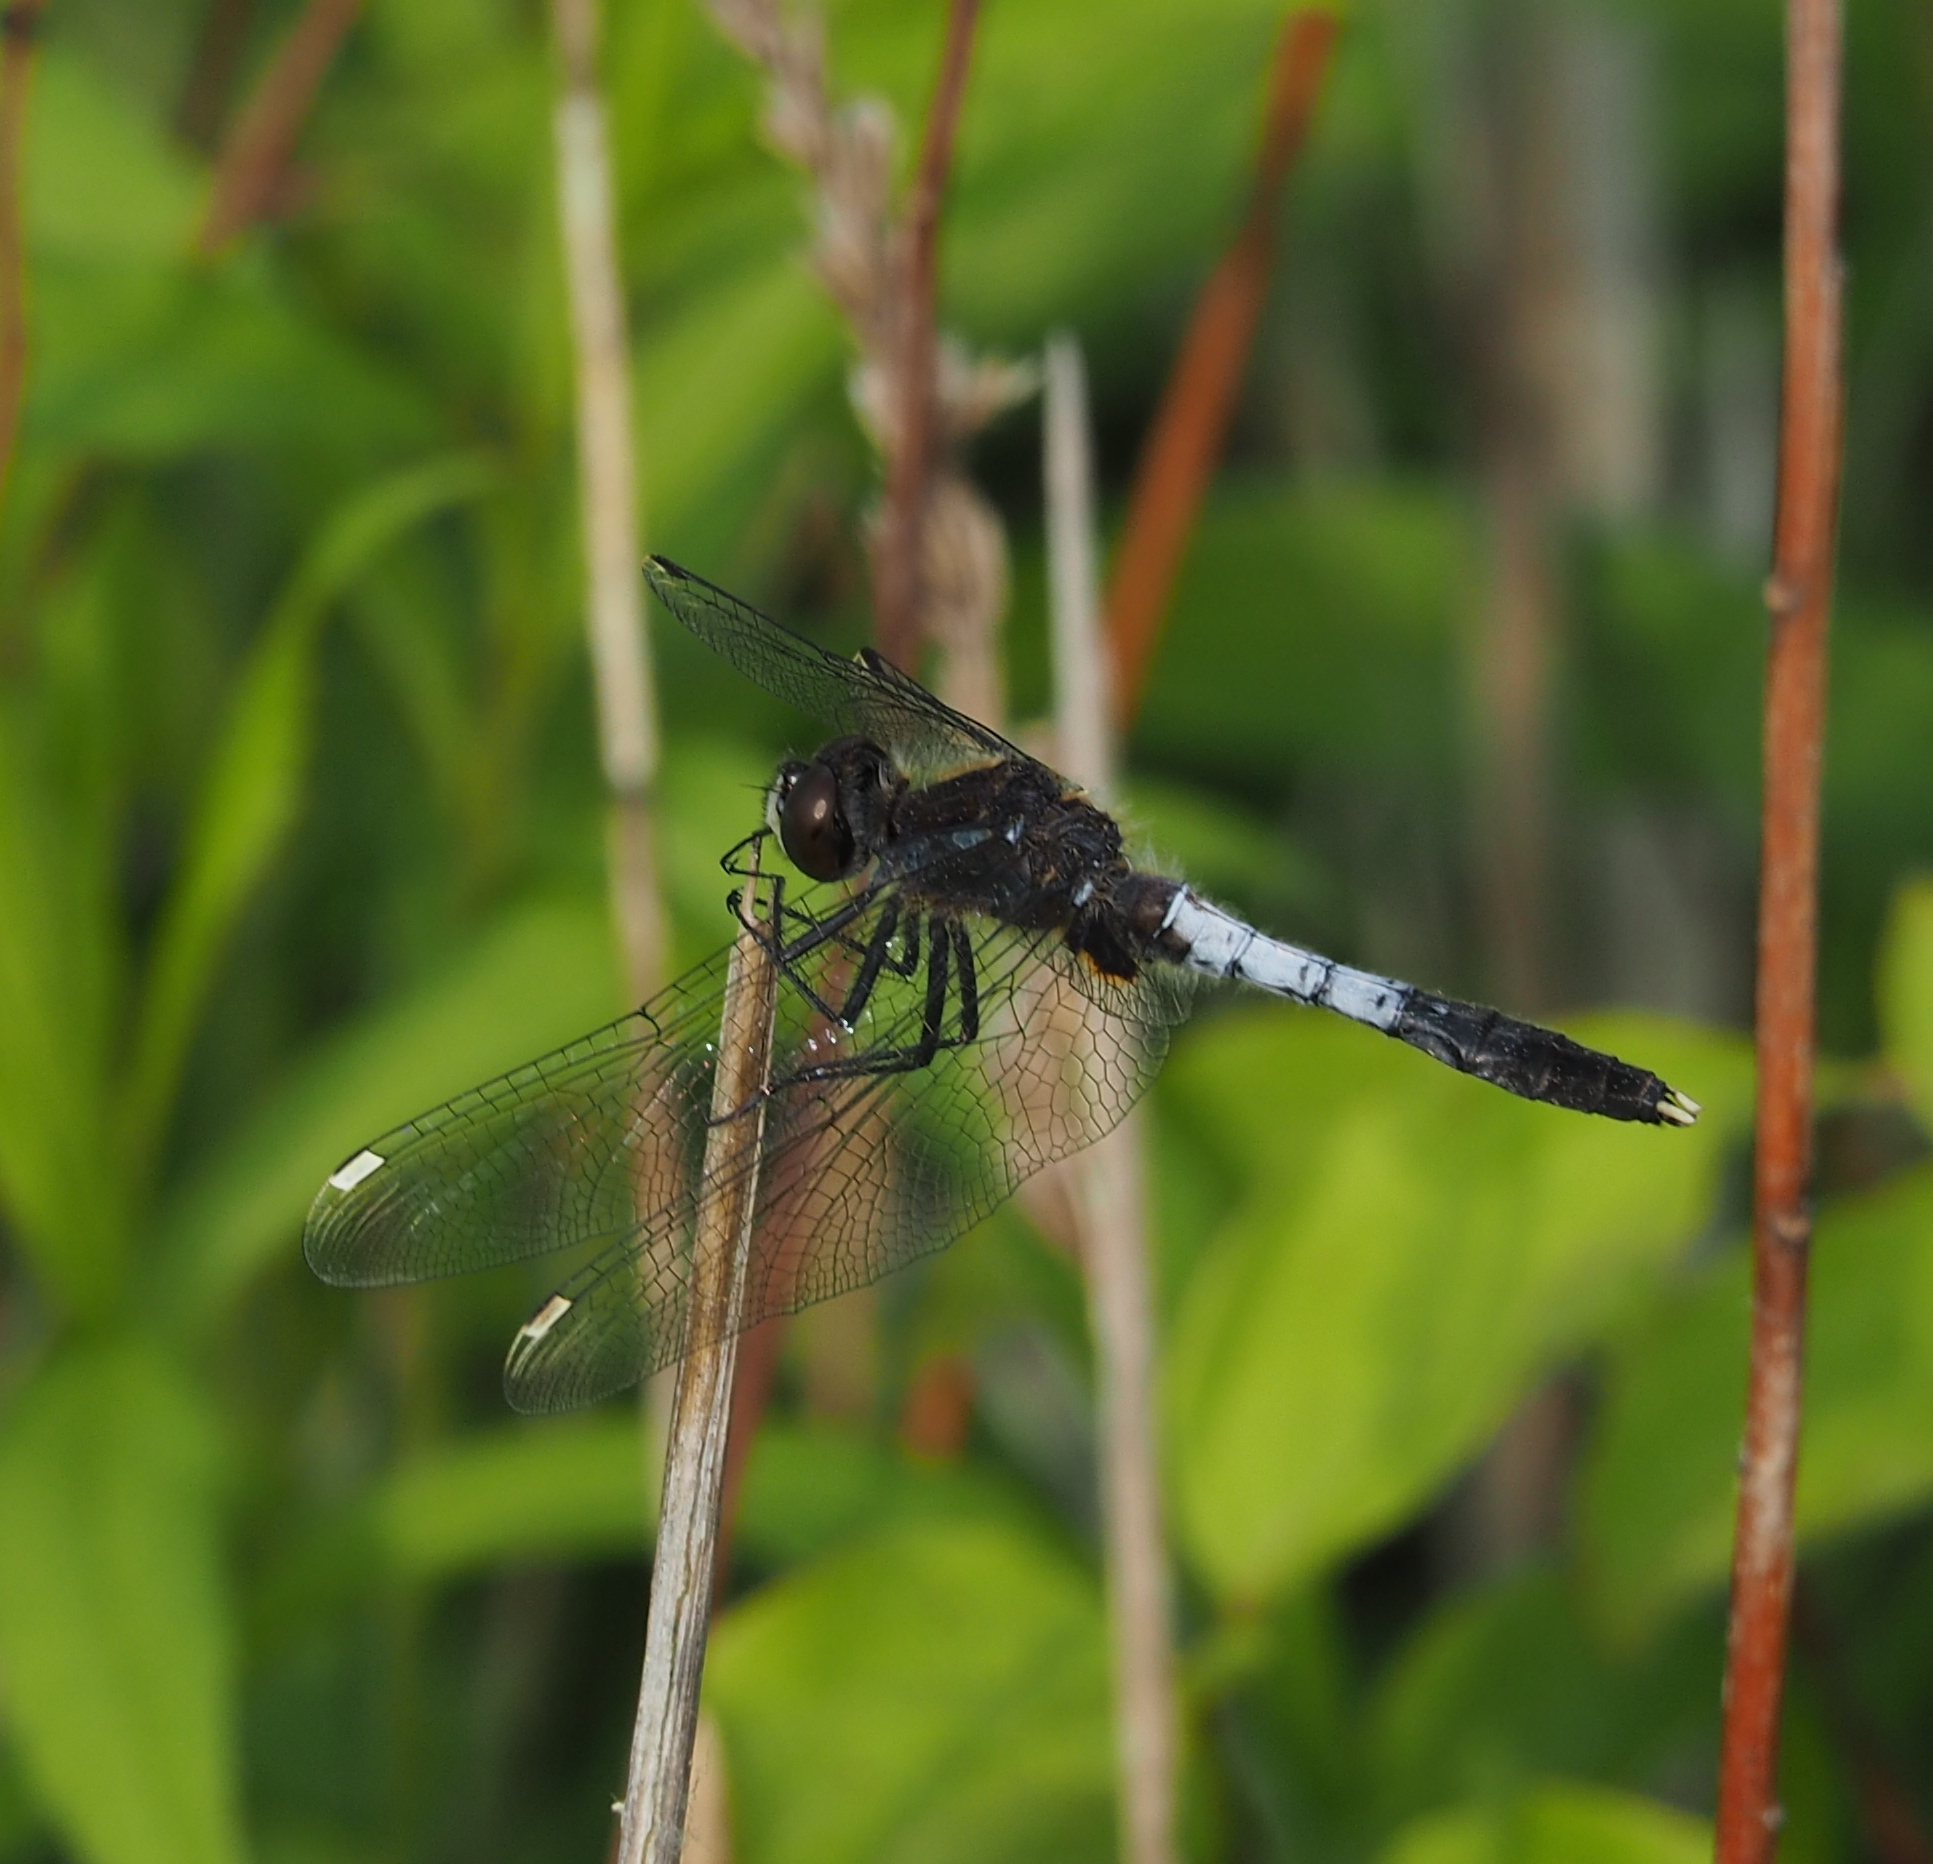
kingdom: Animalia
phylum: Arthropoda
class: Insecta
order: Odonata
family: Libellulidae
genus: Leucorrhinia
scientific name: Leucorrhinia caudalis
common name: Lilypad whiteface
